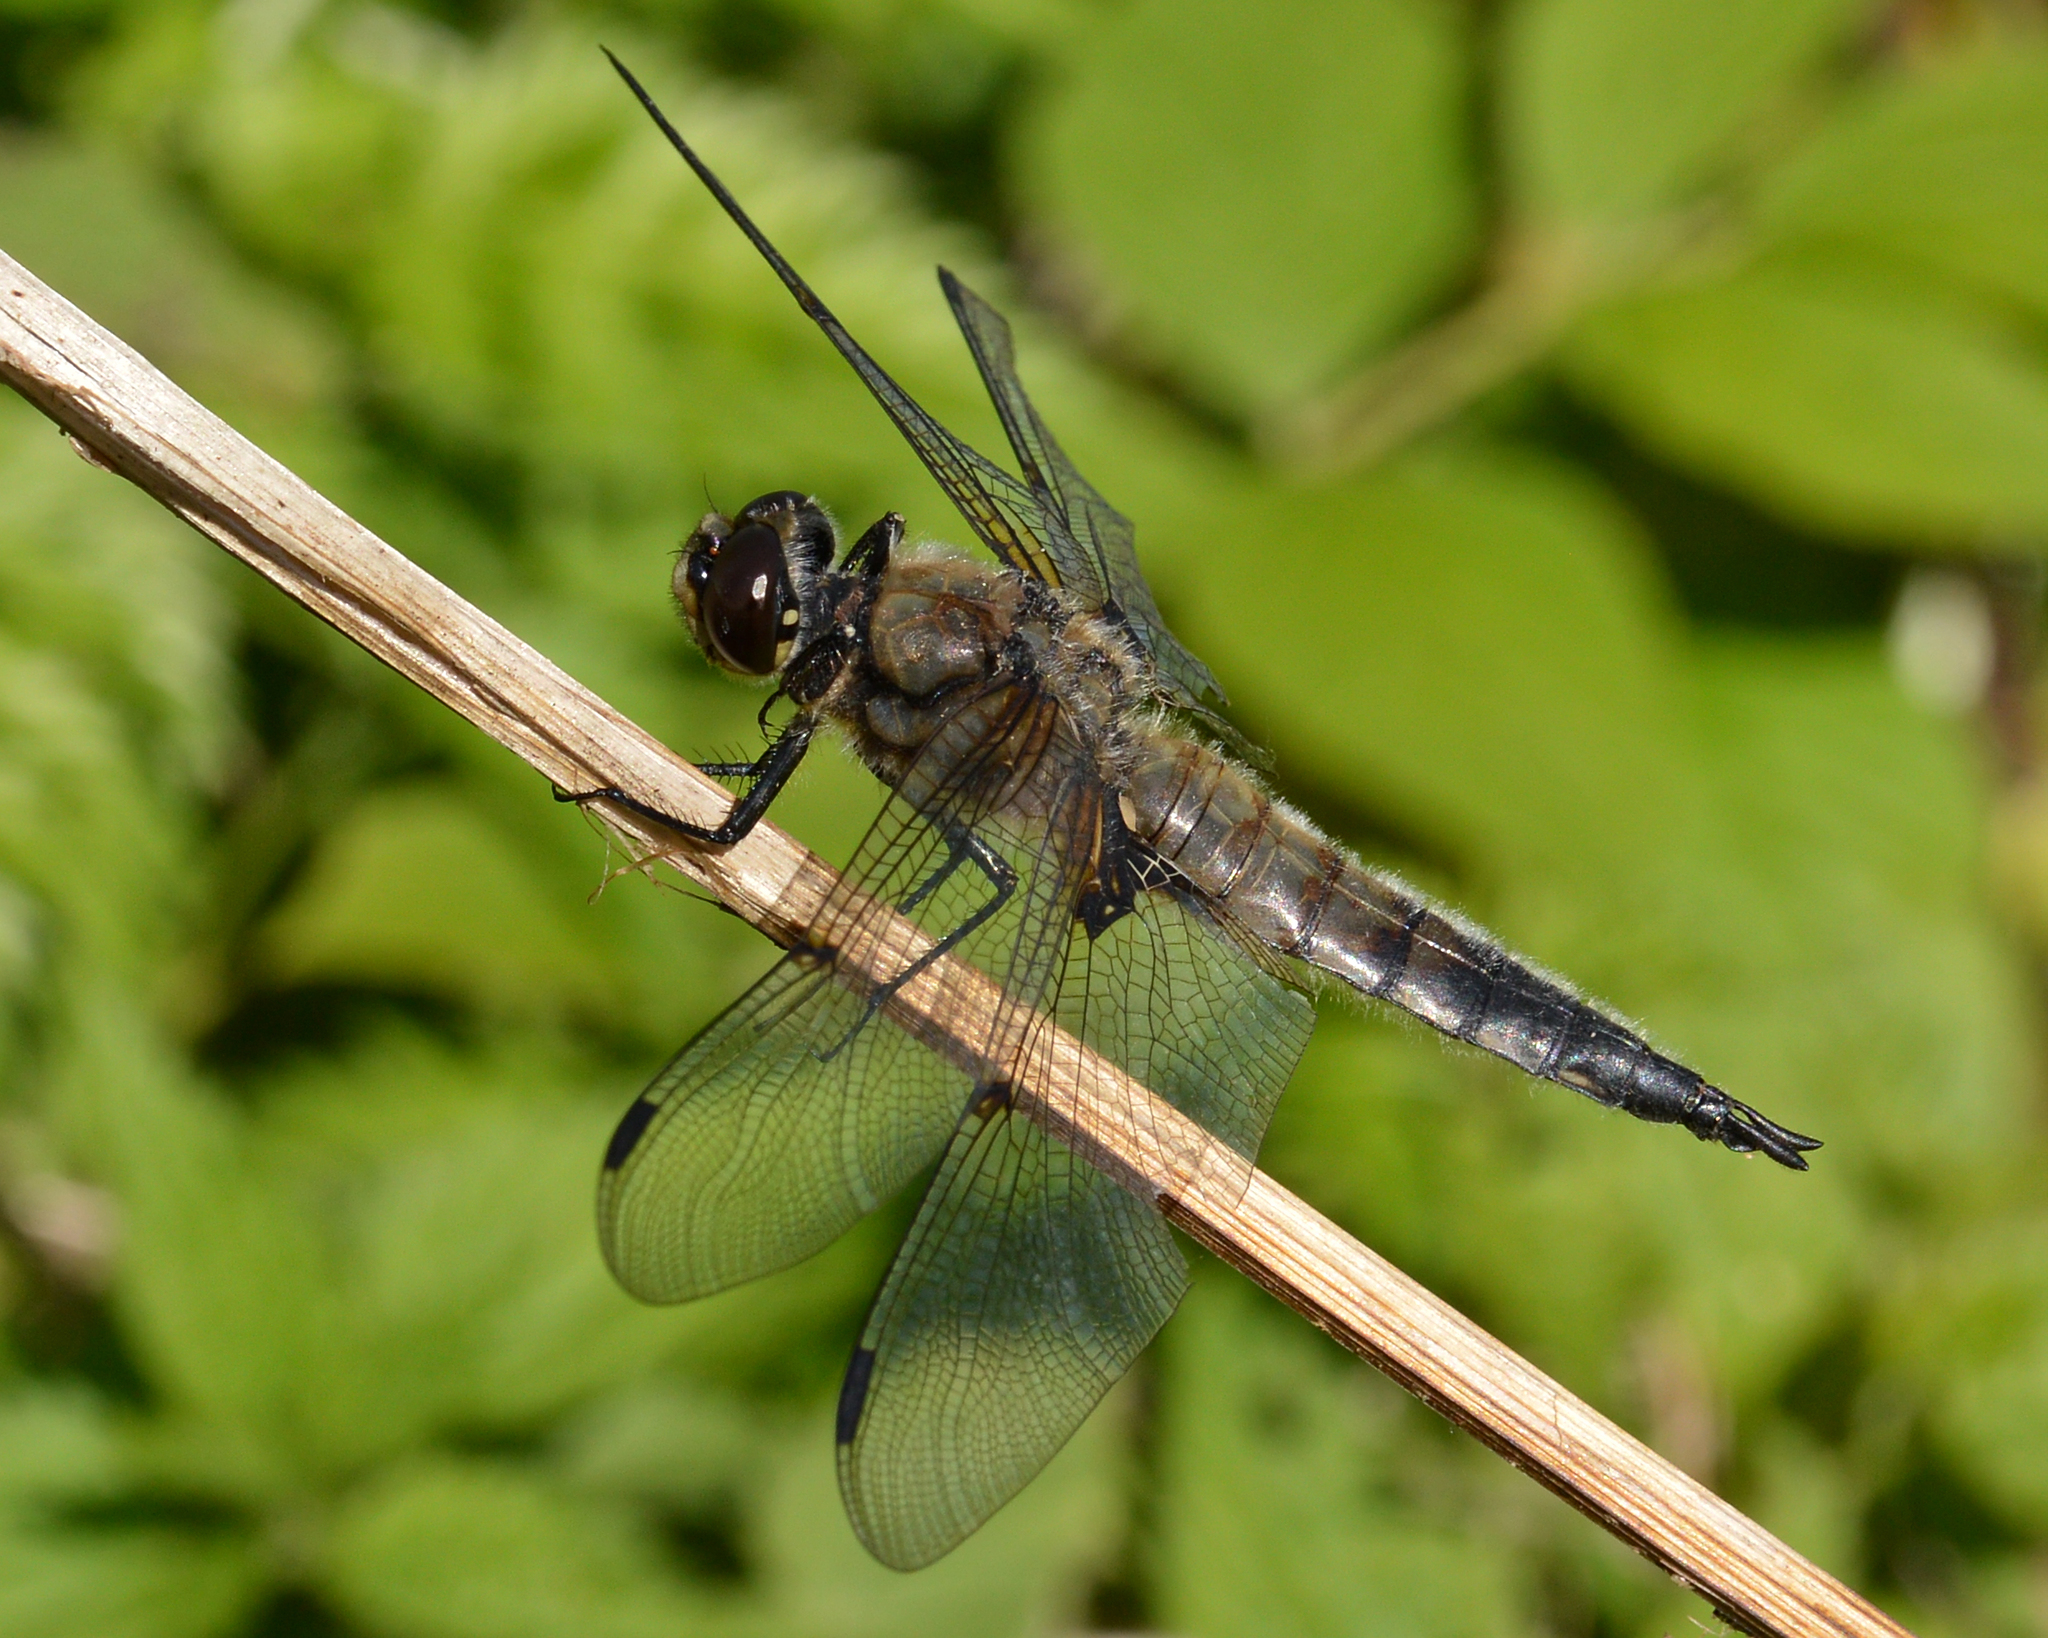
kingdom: Animalia
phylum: Arthropoda
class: Insecta
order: Odonata
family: Libellulidae
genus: Libellula
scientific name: Libellula quadrimaculata
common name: Four-spotted chaser
